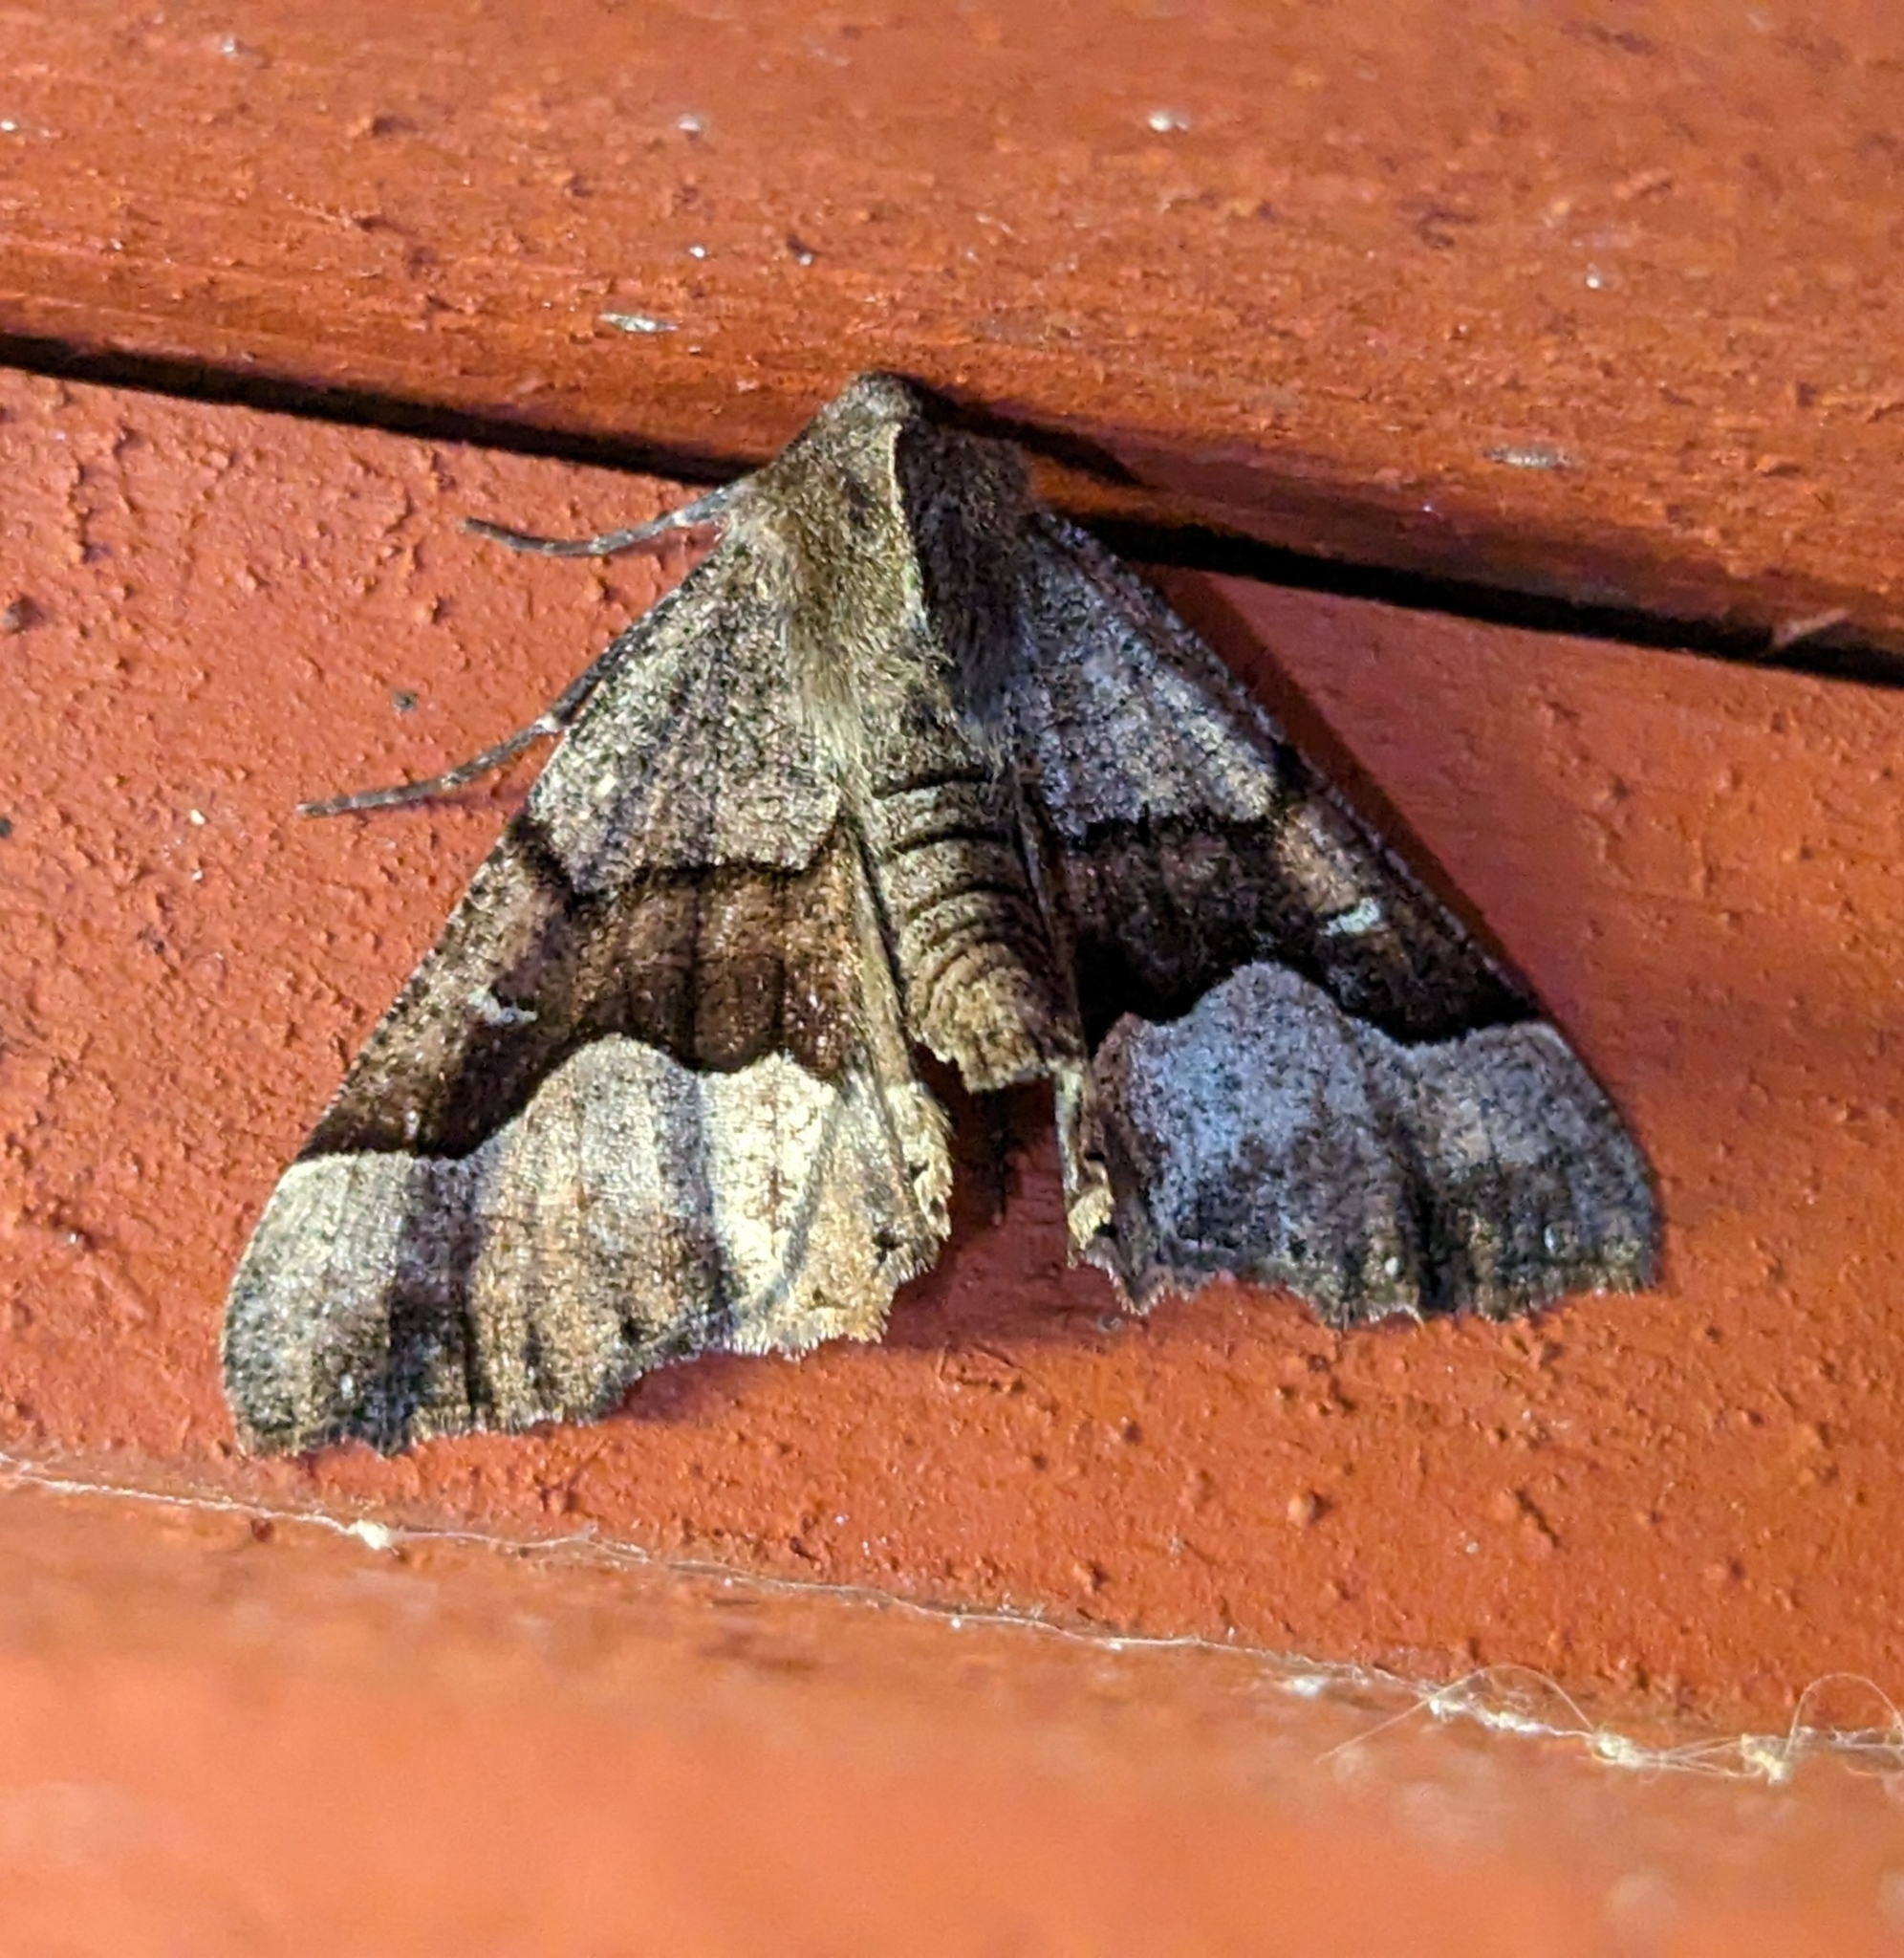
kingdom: Animalia
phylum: Arthropoda
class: Insecta
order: Lepidoptera
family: Geometridae
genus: Pero
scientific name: Pero behrensaria
